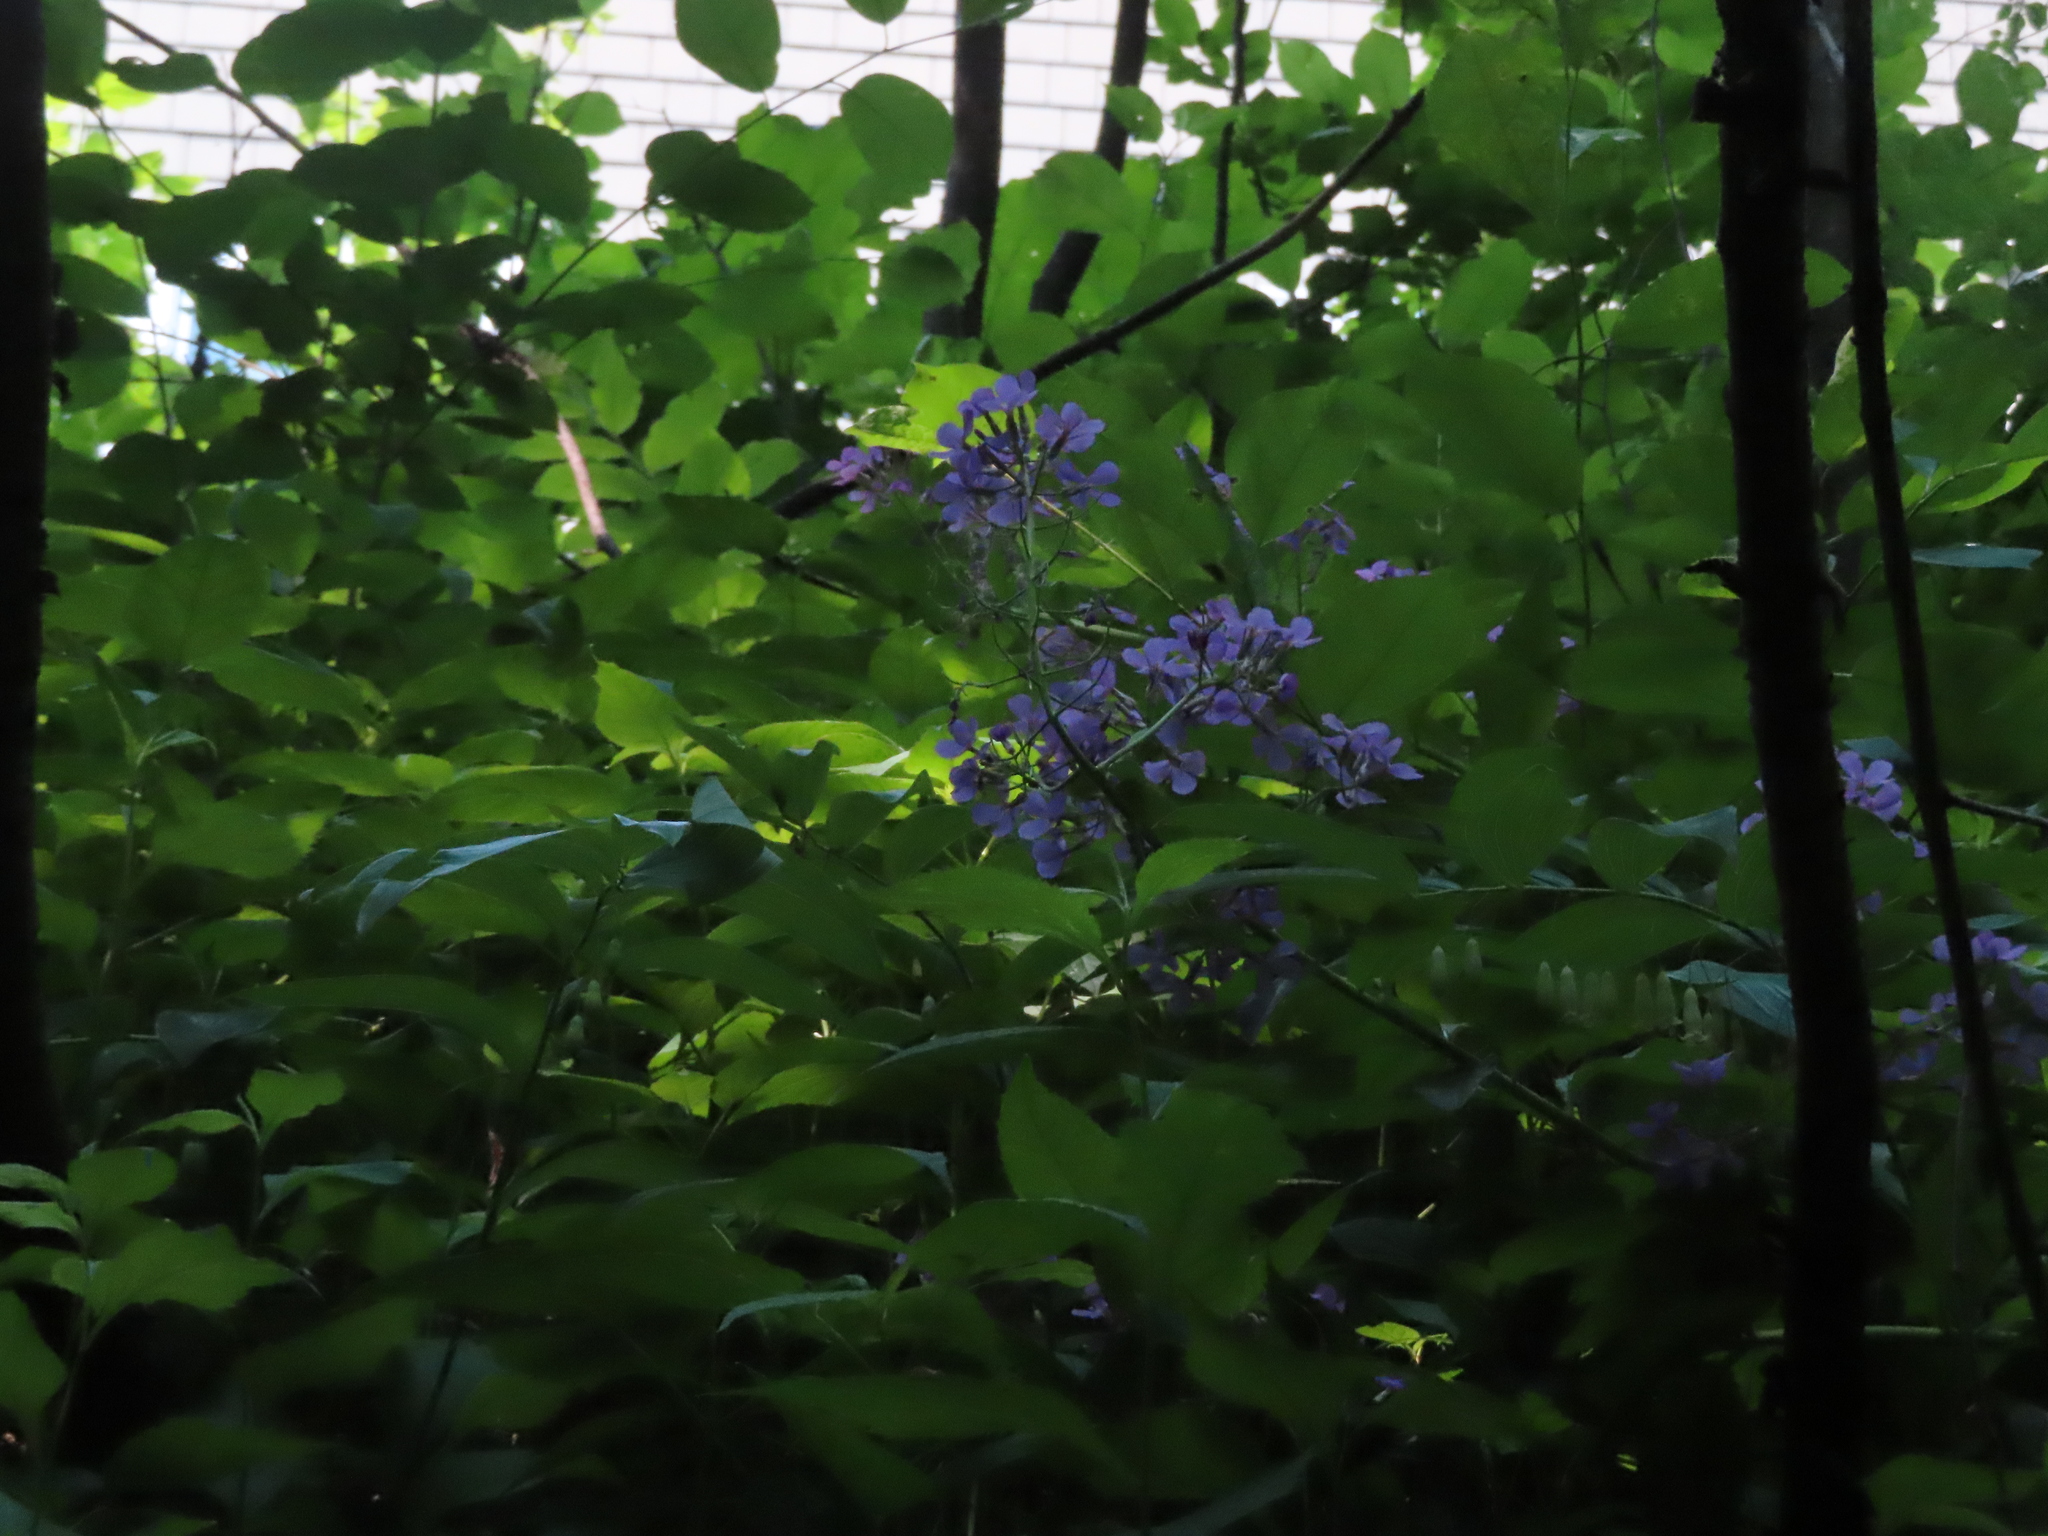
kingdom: Plantae
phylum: Tracheophyta
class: Magnoliopsida
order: Brassicales
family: Brassicaceae
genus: Hesperis
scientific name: Hesperis matronalis
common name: Dame's-violet
